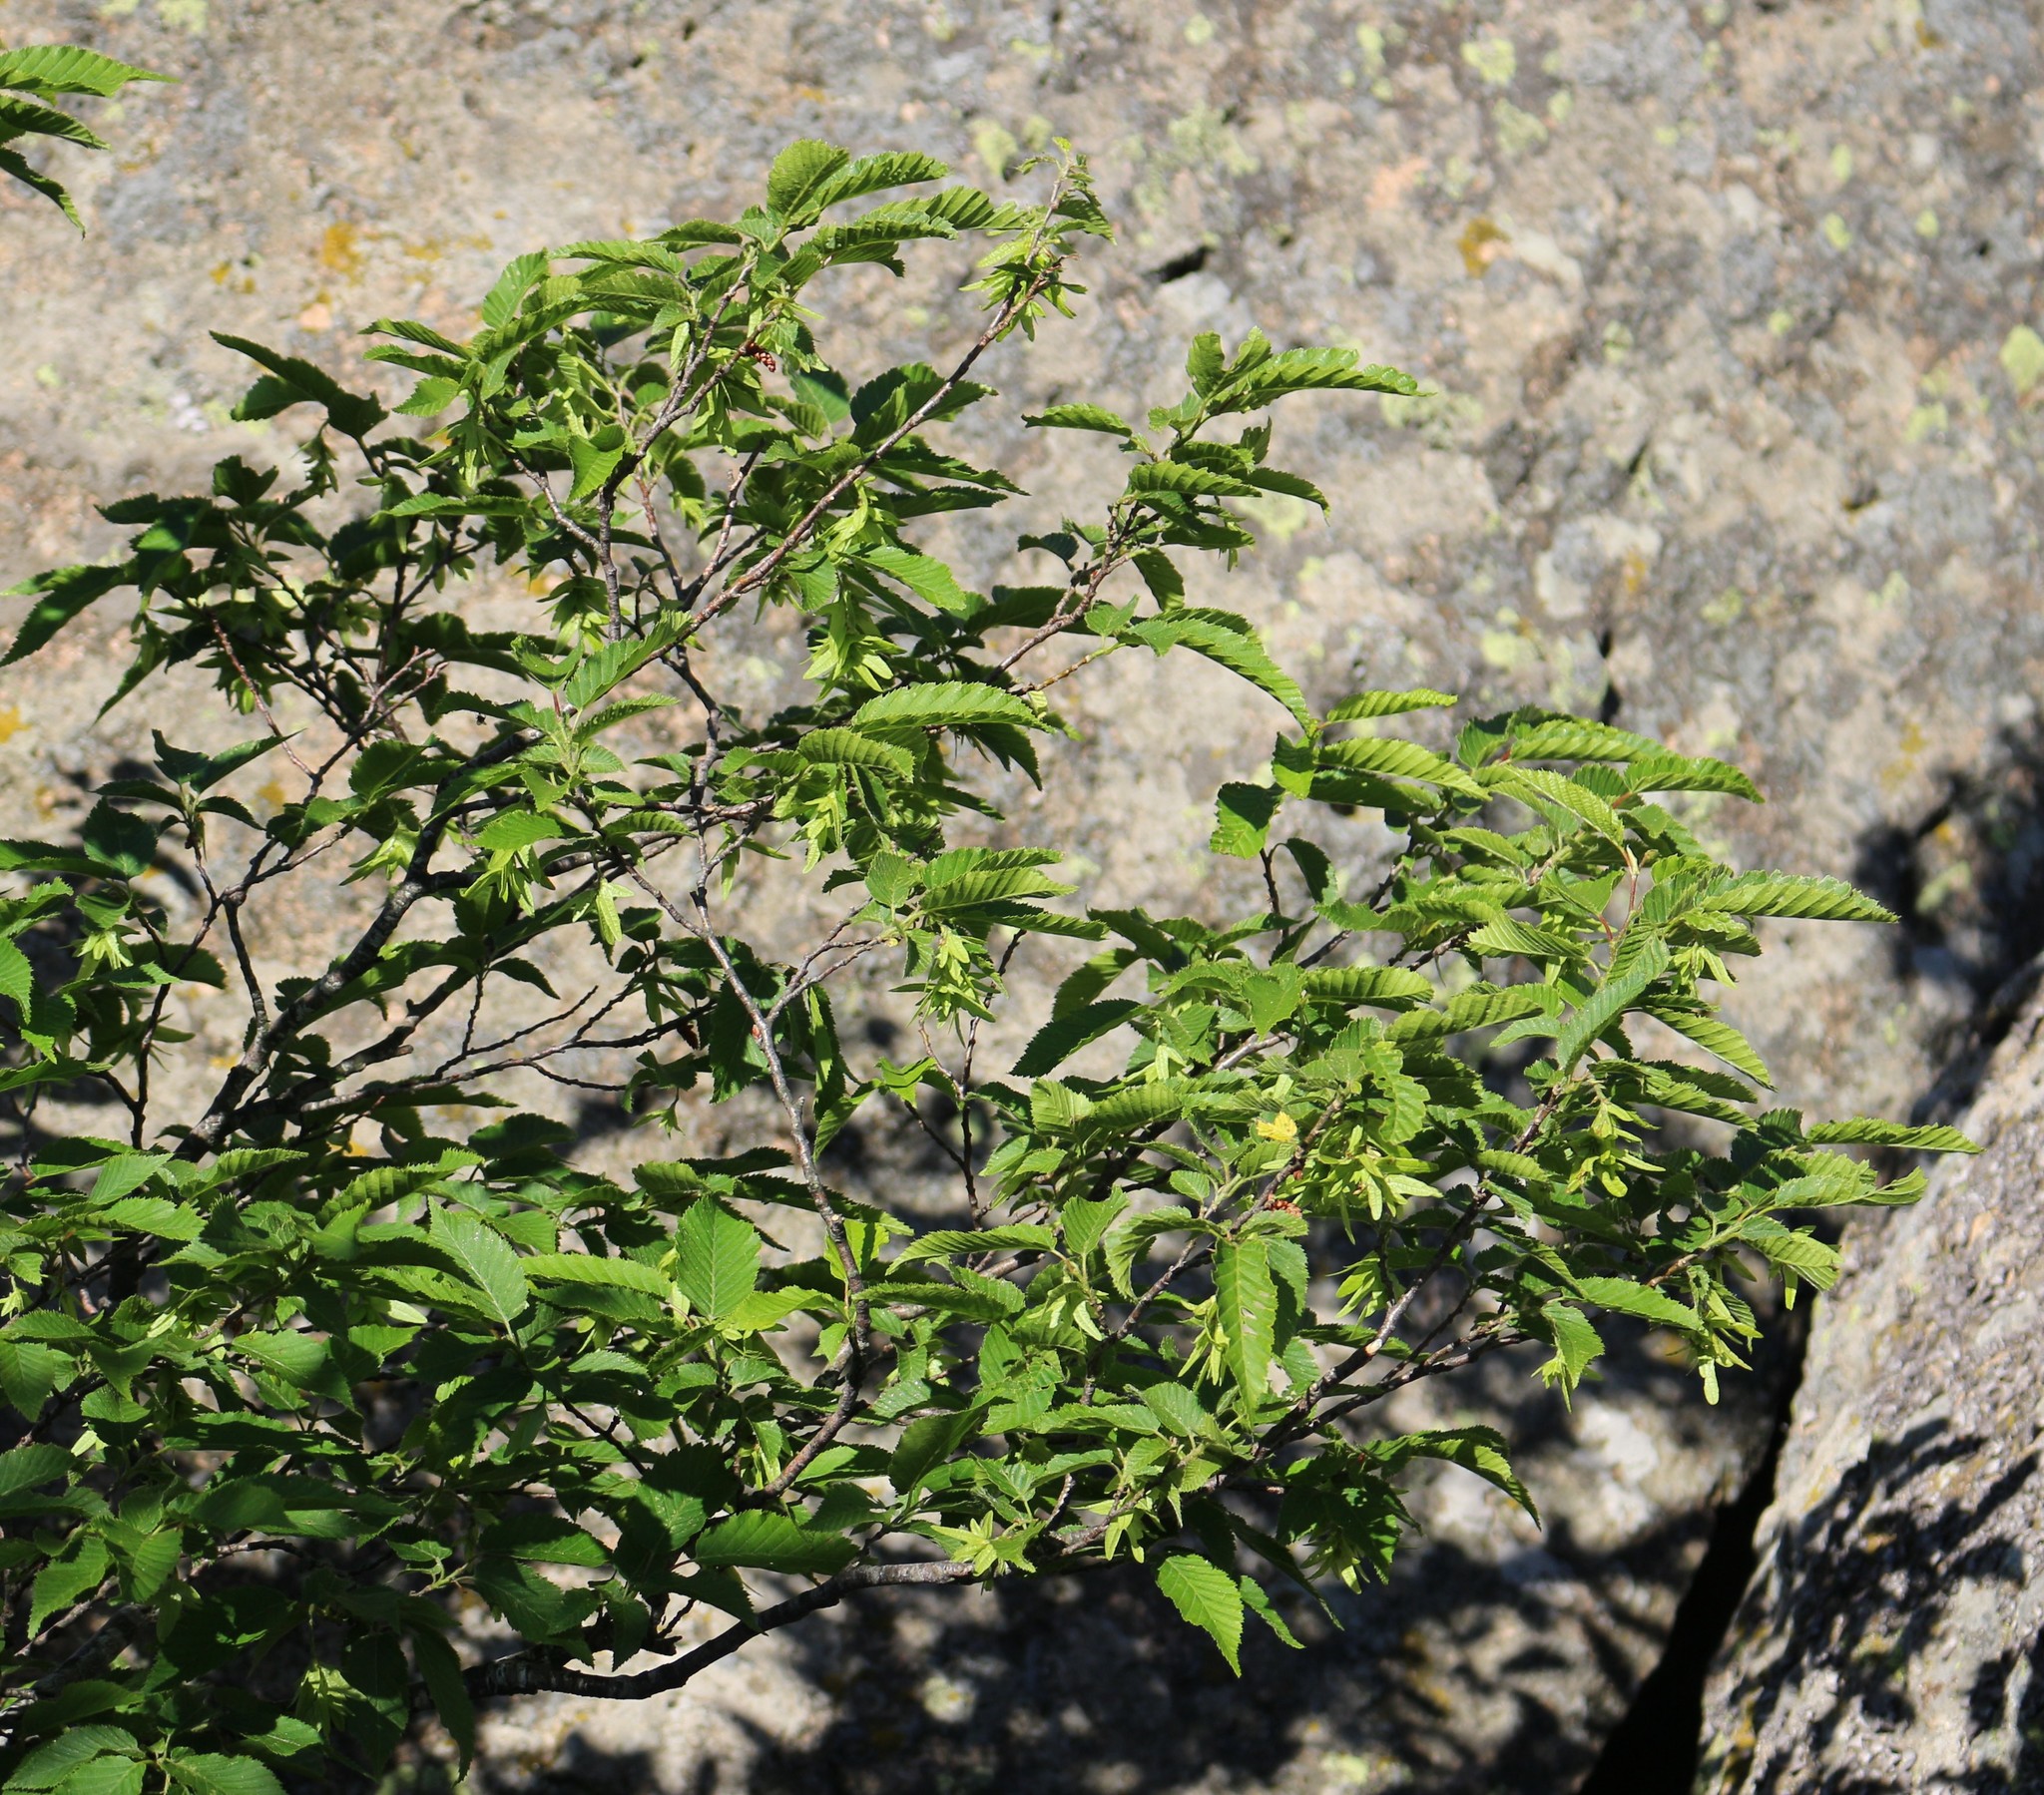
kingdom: Plantae
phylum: Tracheophyta
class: Magnoliopsida
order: Fagales
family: Betulaceae
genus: Carpinus
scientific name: Carpinus betulus
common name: Hornbeam
